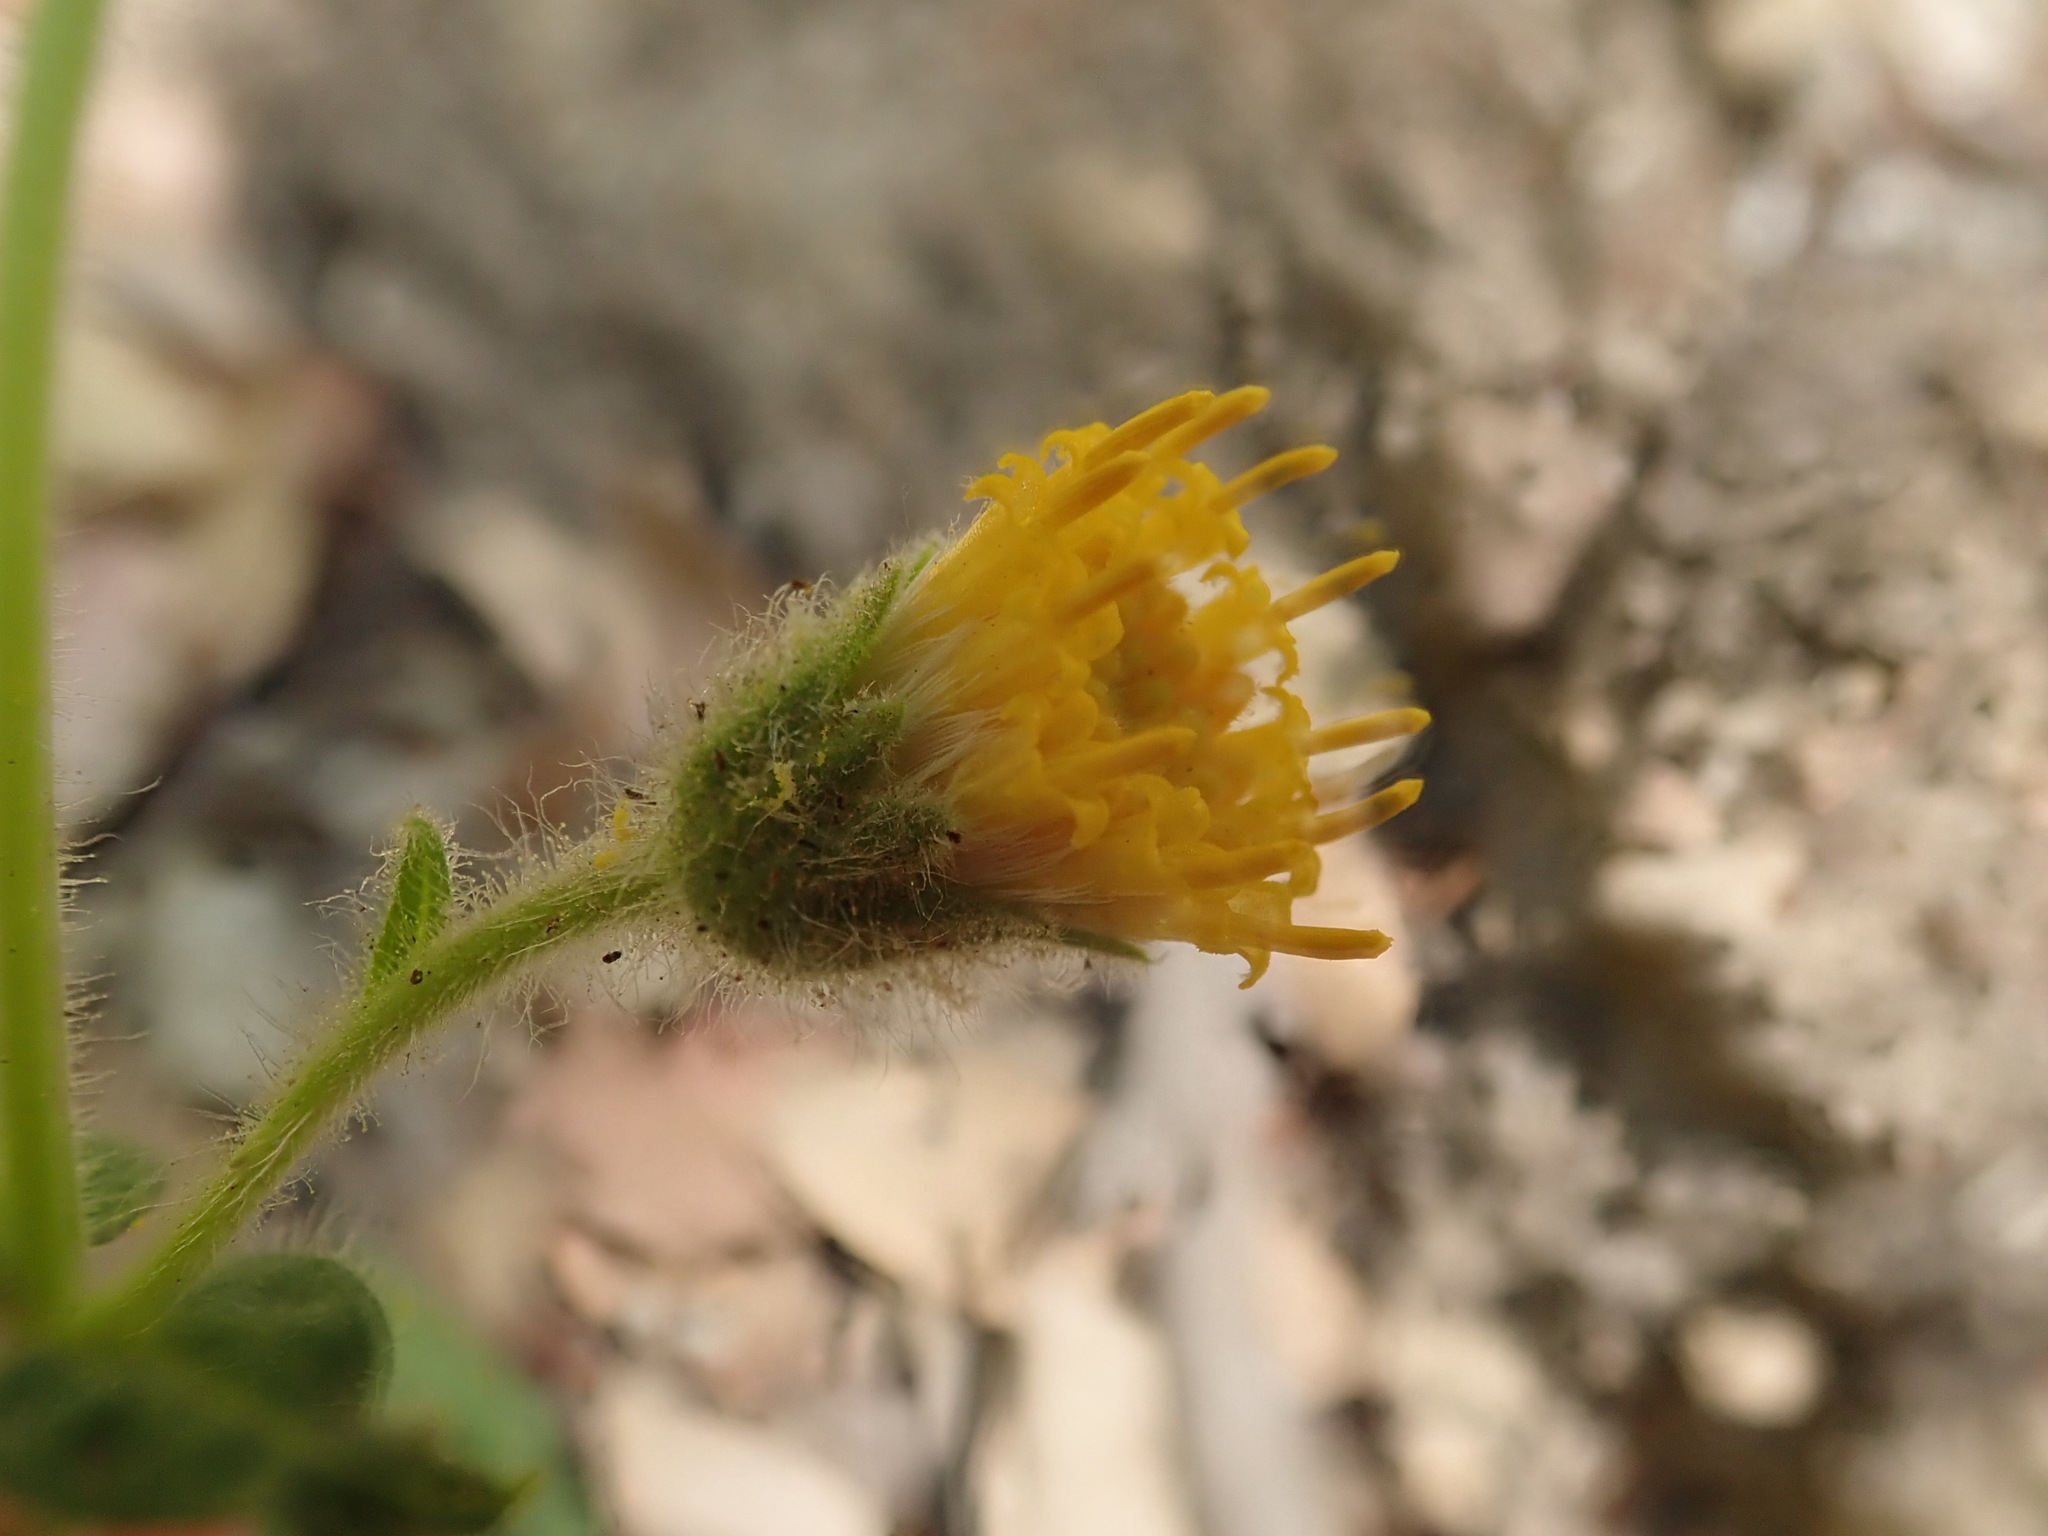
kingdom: Plantae
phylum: Tracheophyta
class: Magnoliopsida
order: Asterales
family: Asteraceae
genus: Arnica
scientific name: Arnica discoidea
